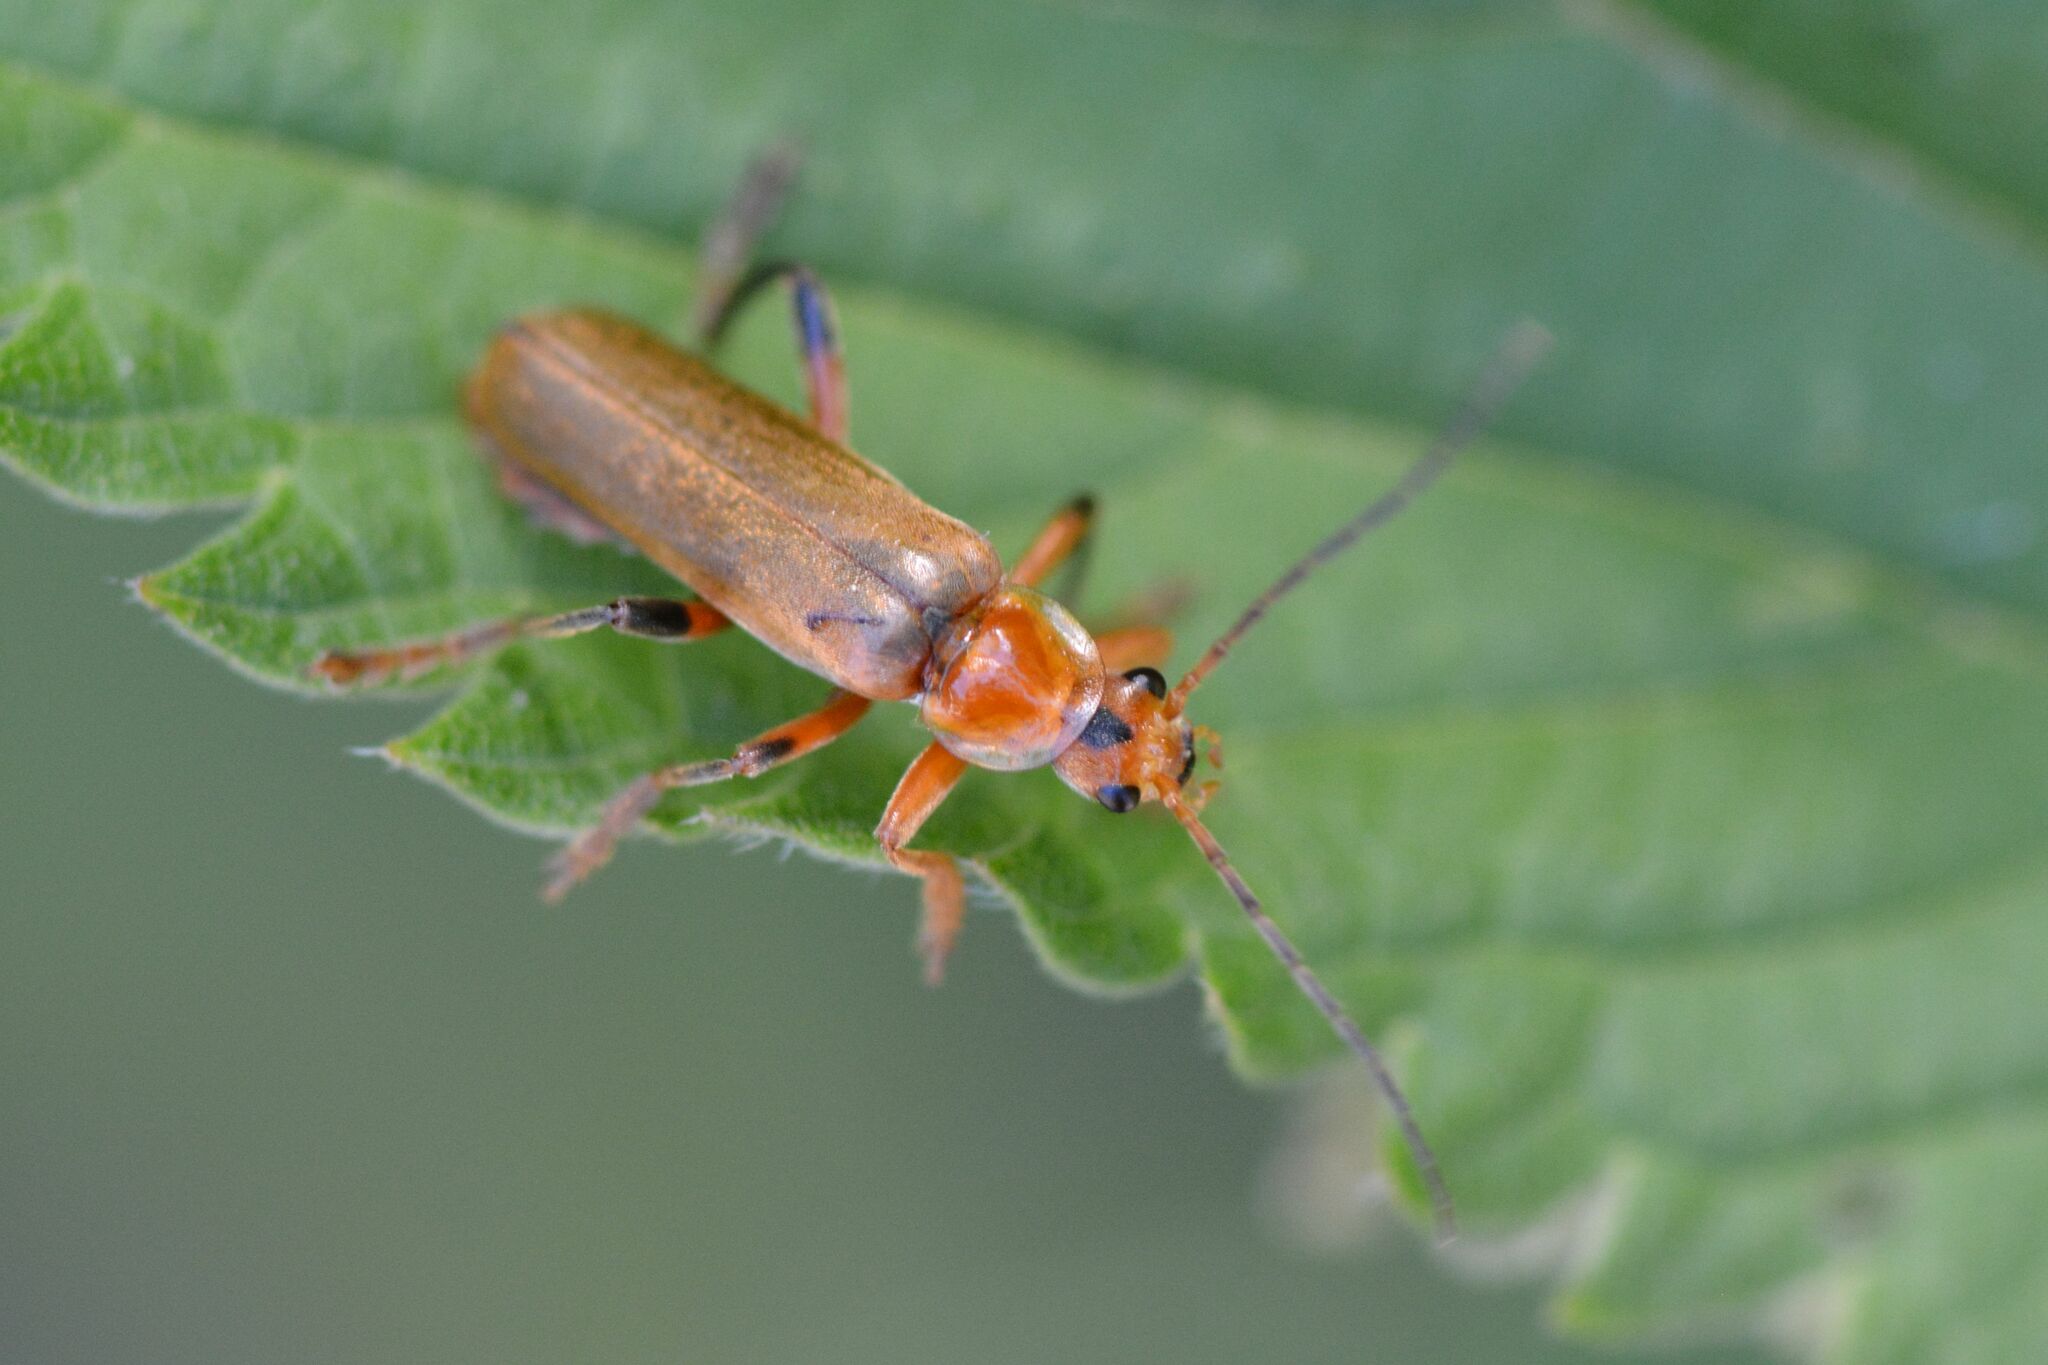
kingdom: Animalia
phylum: Arthropoda
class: Insecta
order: Coleoptera
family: Cantharidae
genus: Cantharis
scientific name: Cantharis livida
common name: Livid soldier beetle
